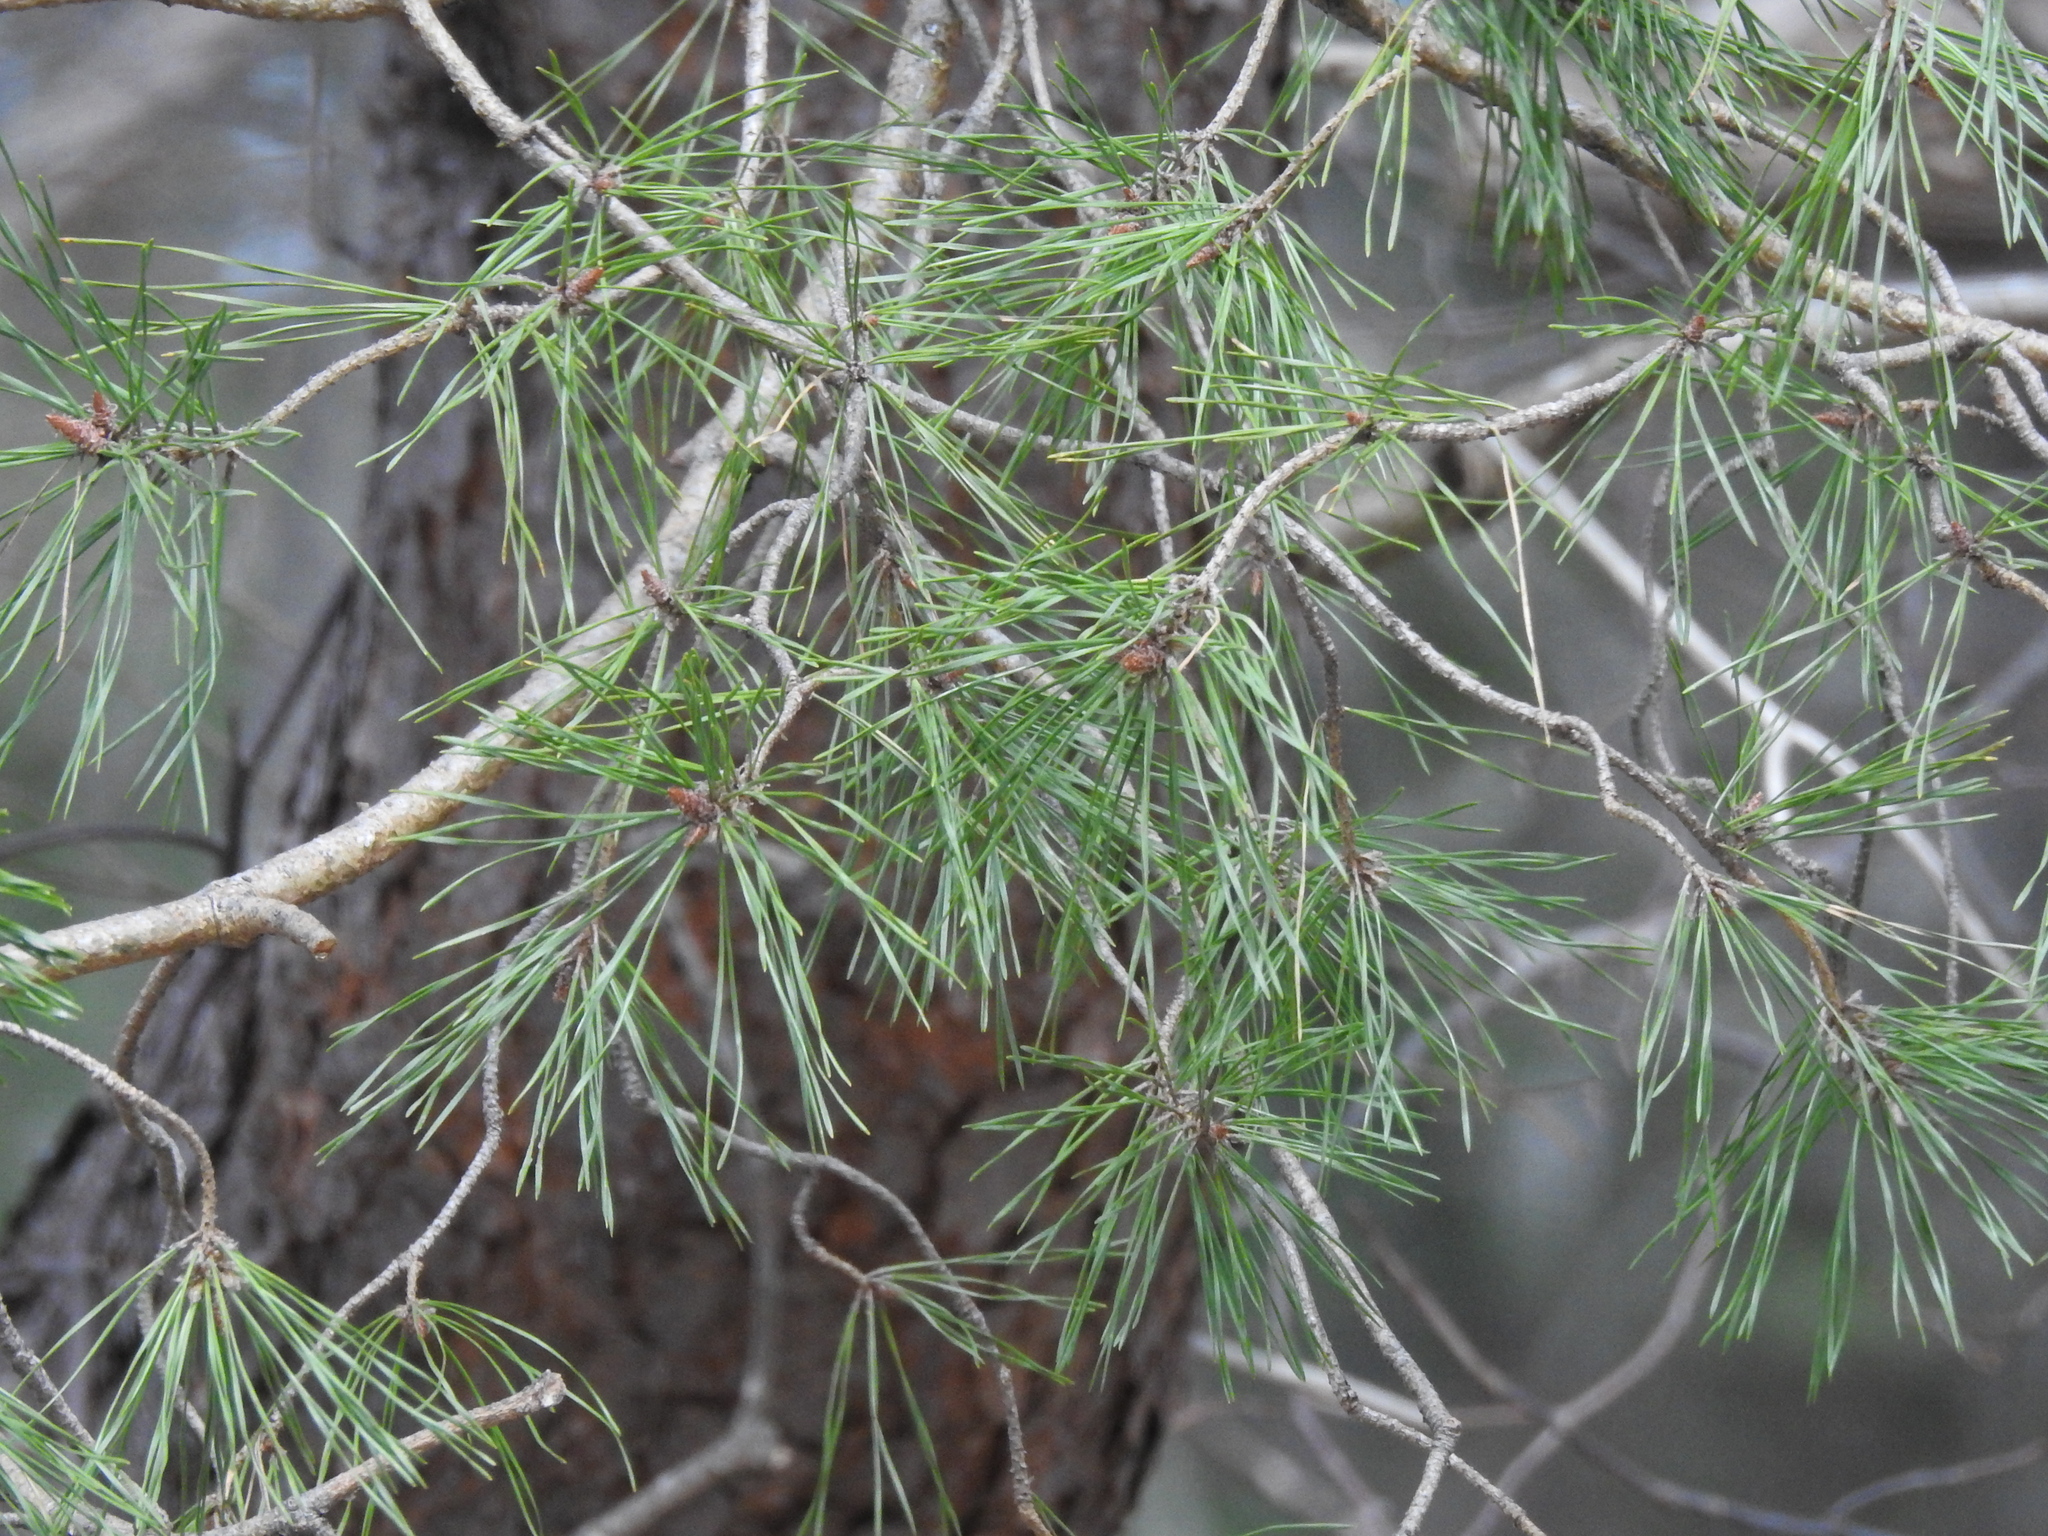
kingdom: Plantae
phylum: Tracheophyta
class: Pinopsida
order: Pinales
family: Pinaceae
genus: Pinus
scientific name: Pinus sylvestris
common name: Scots pine
